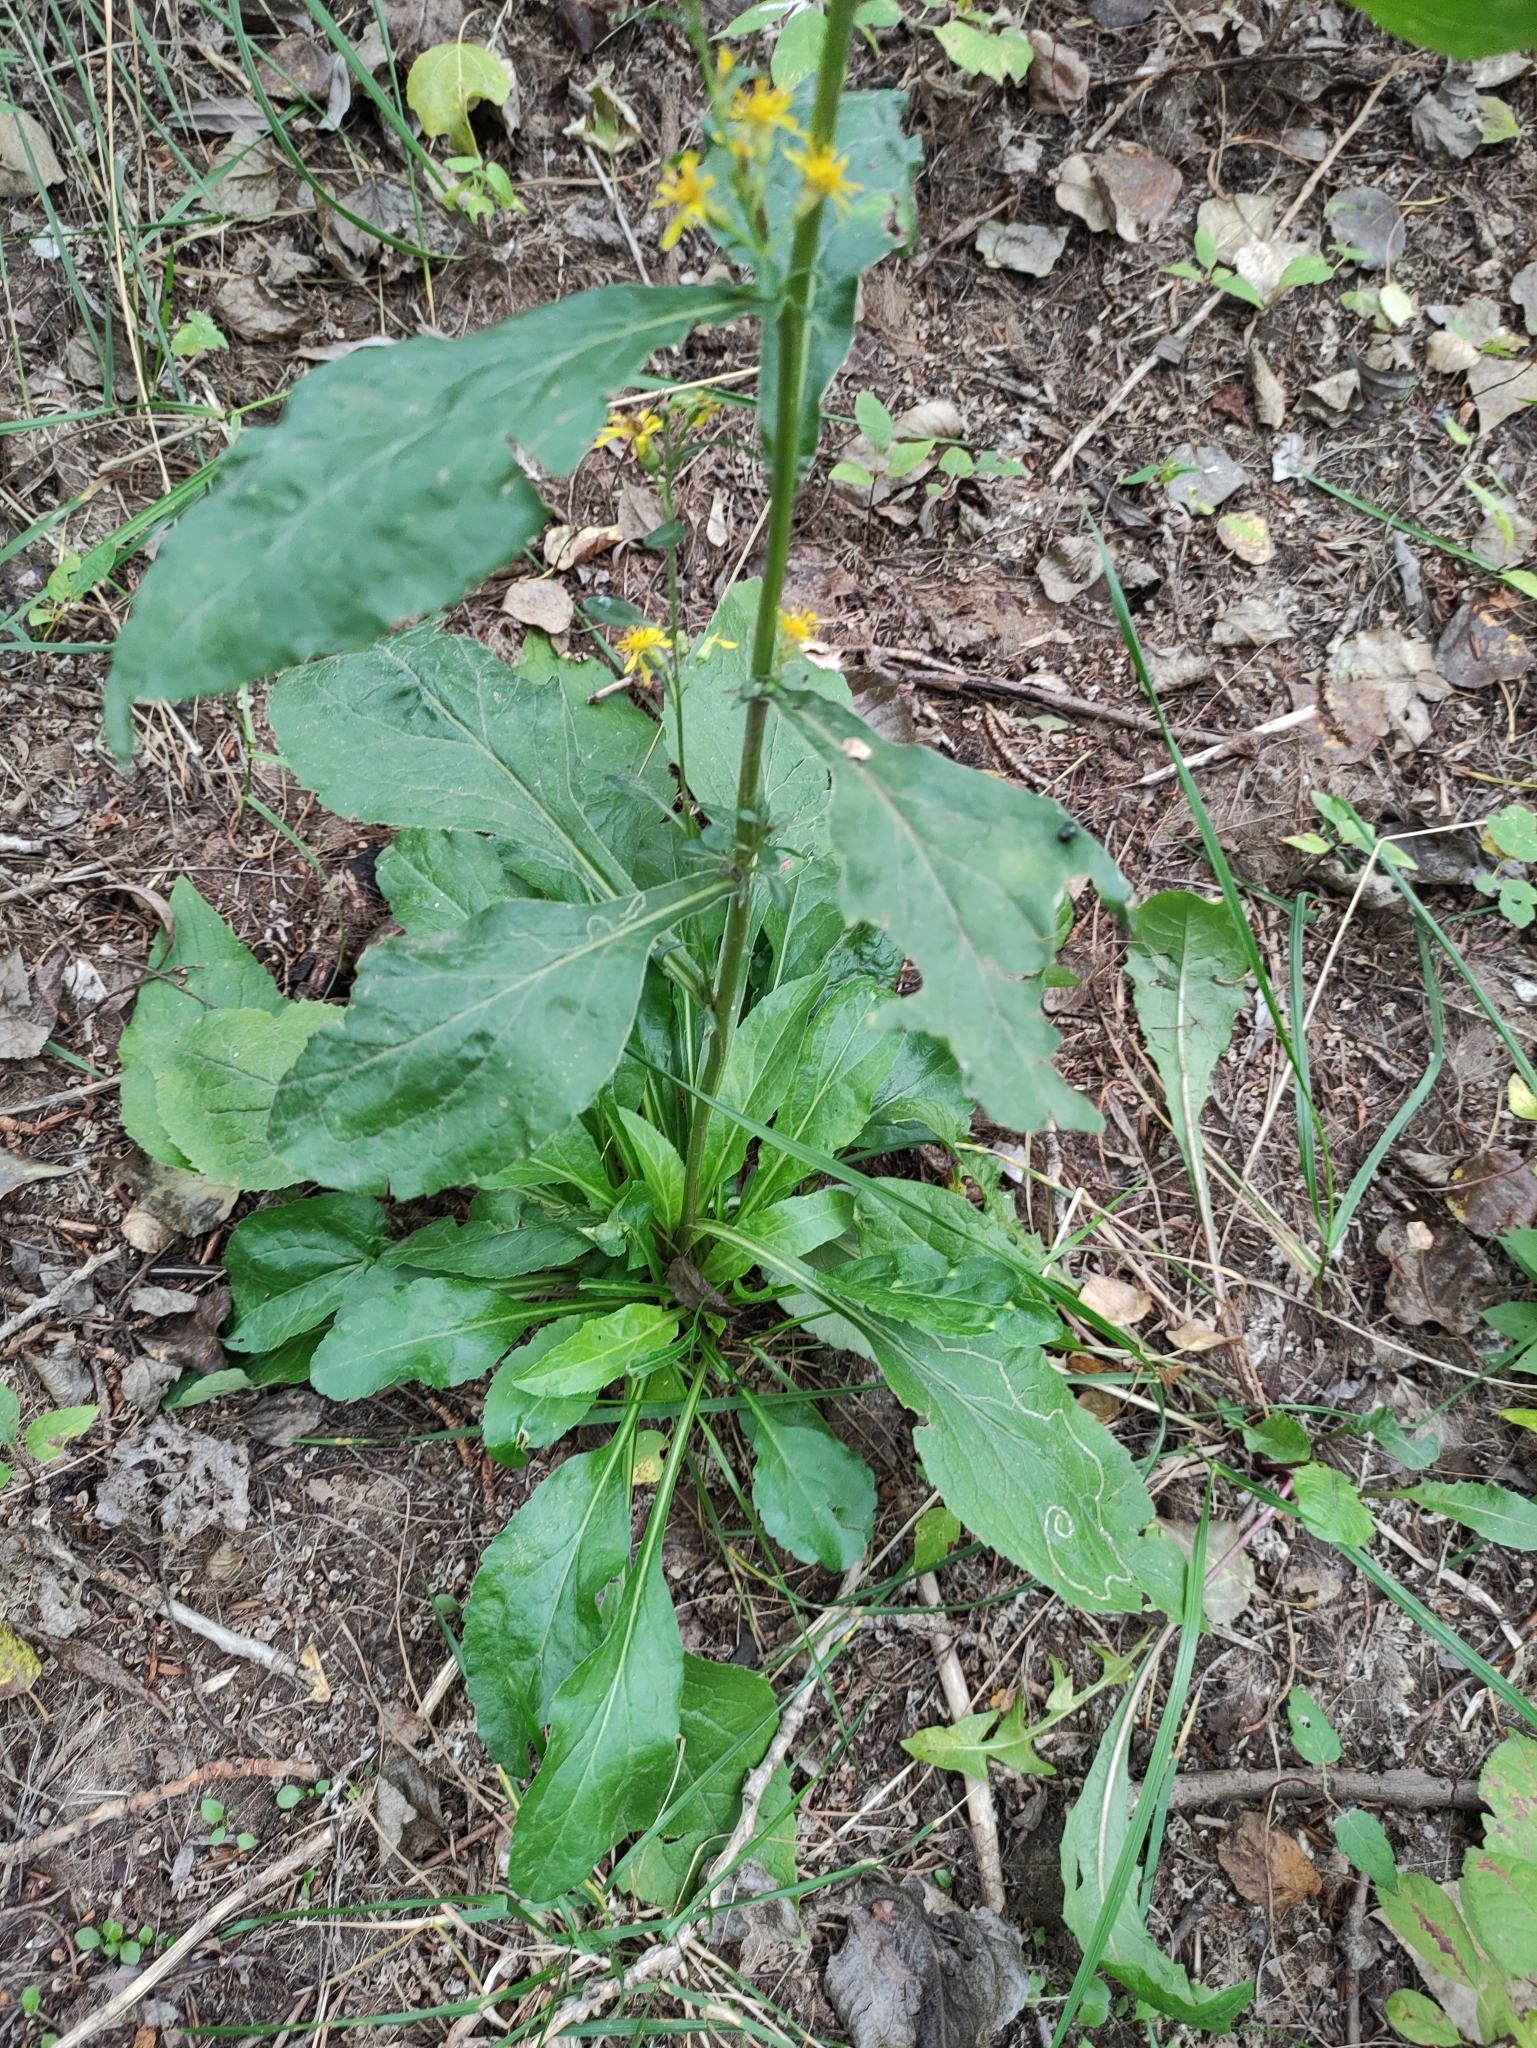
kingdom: Plantae
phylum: Tracheophyta
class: Magnoliopsida
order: Asterales
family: Asteraceae
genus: Solidago
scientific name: Solidago virgaurea
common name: Goldenrod
